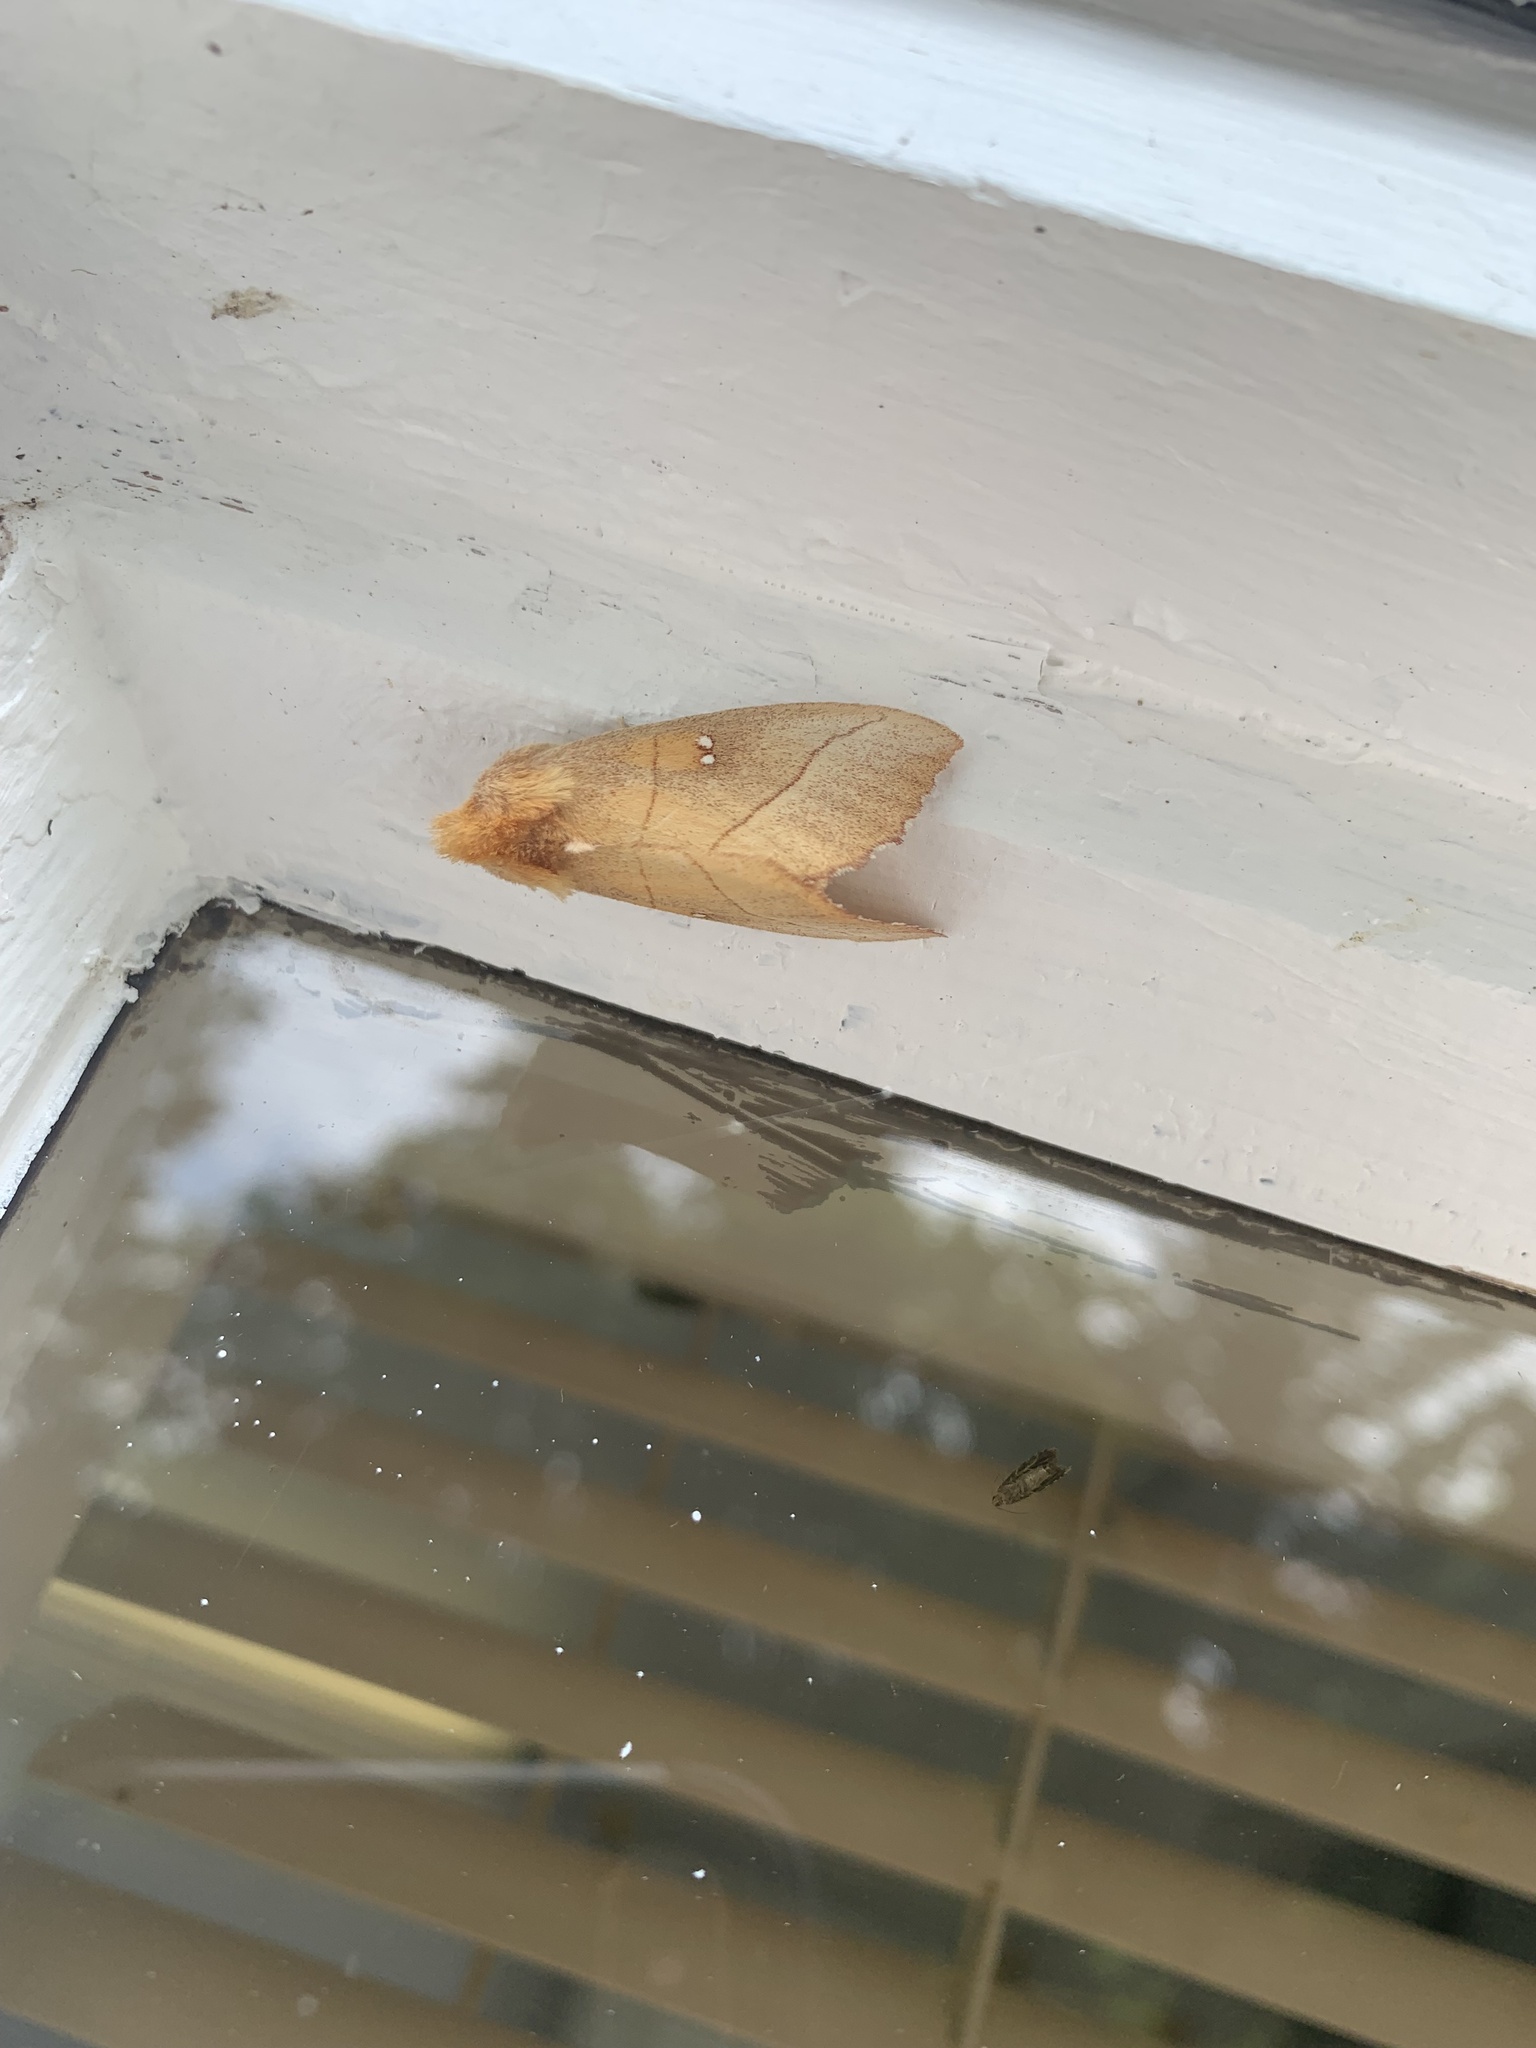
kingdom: Animalia
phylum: Arthropoda
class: Insecta
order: Lepidoptera
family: Notodontidae
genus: Nadata
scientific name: Nadata gibbosa
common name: White-dotted prominent
